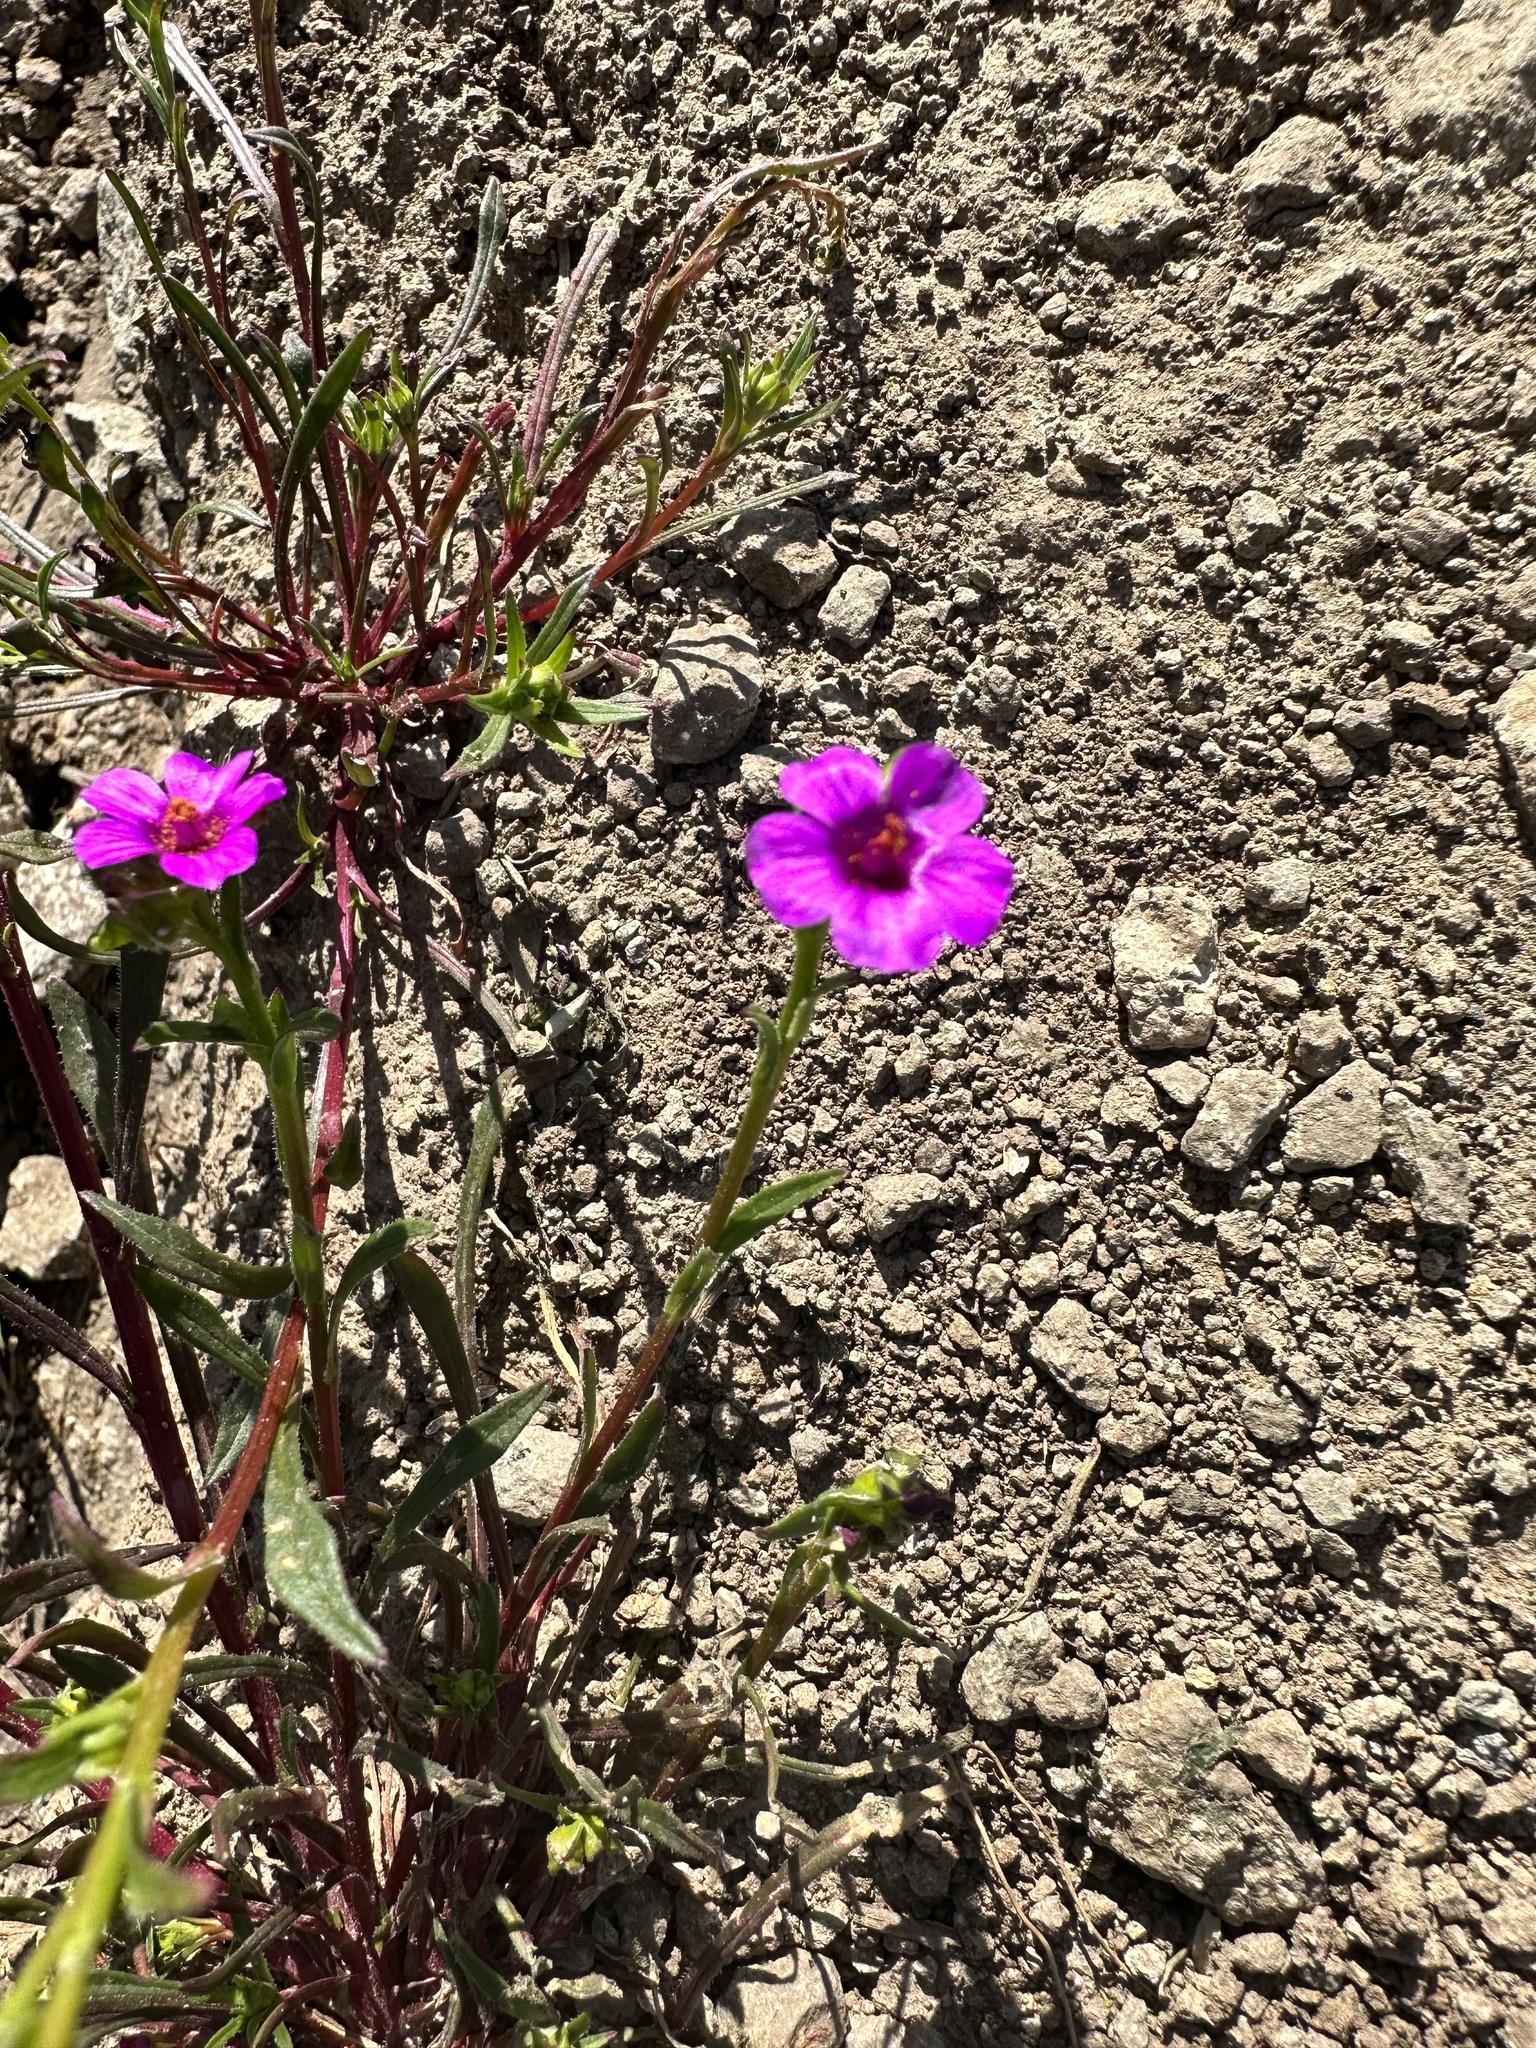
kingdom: Plantae
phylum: Tracheophyta
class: Magnoliopsida
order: Caryophyllales
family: Montiaceae
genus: Calandrinia
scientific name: Calandrinia pilosiuscula
